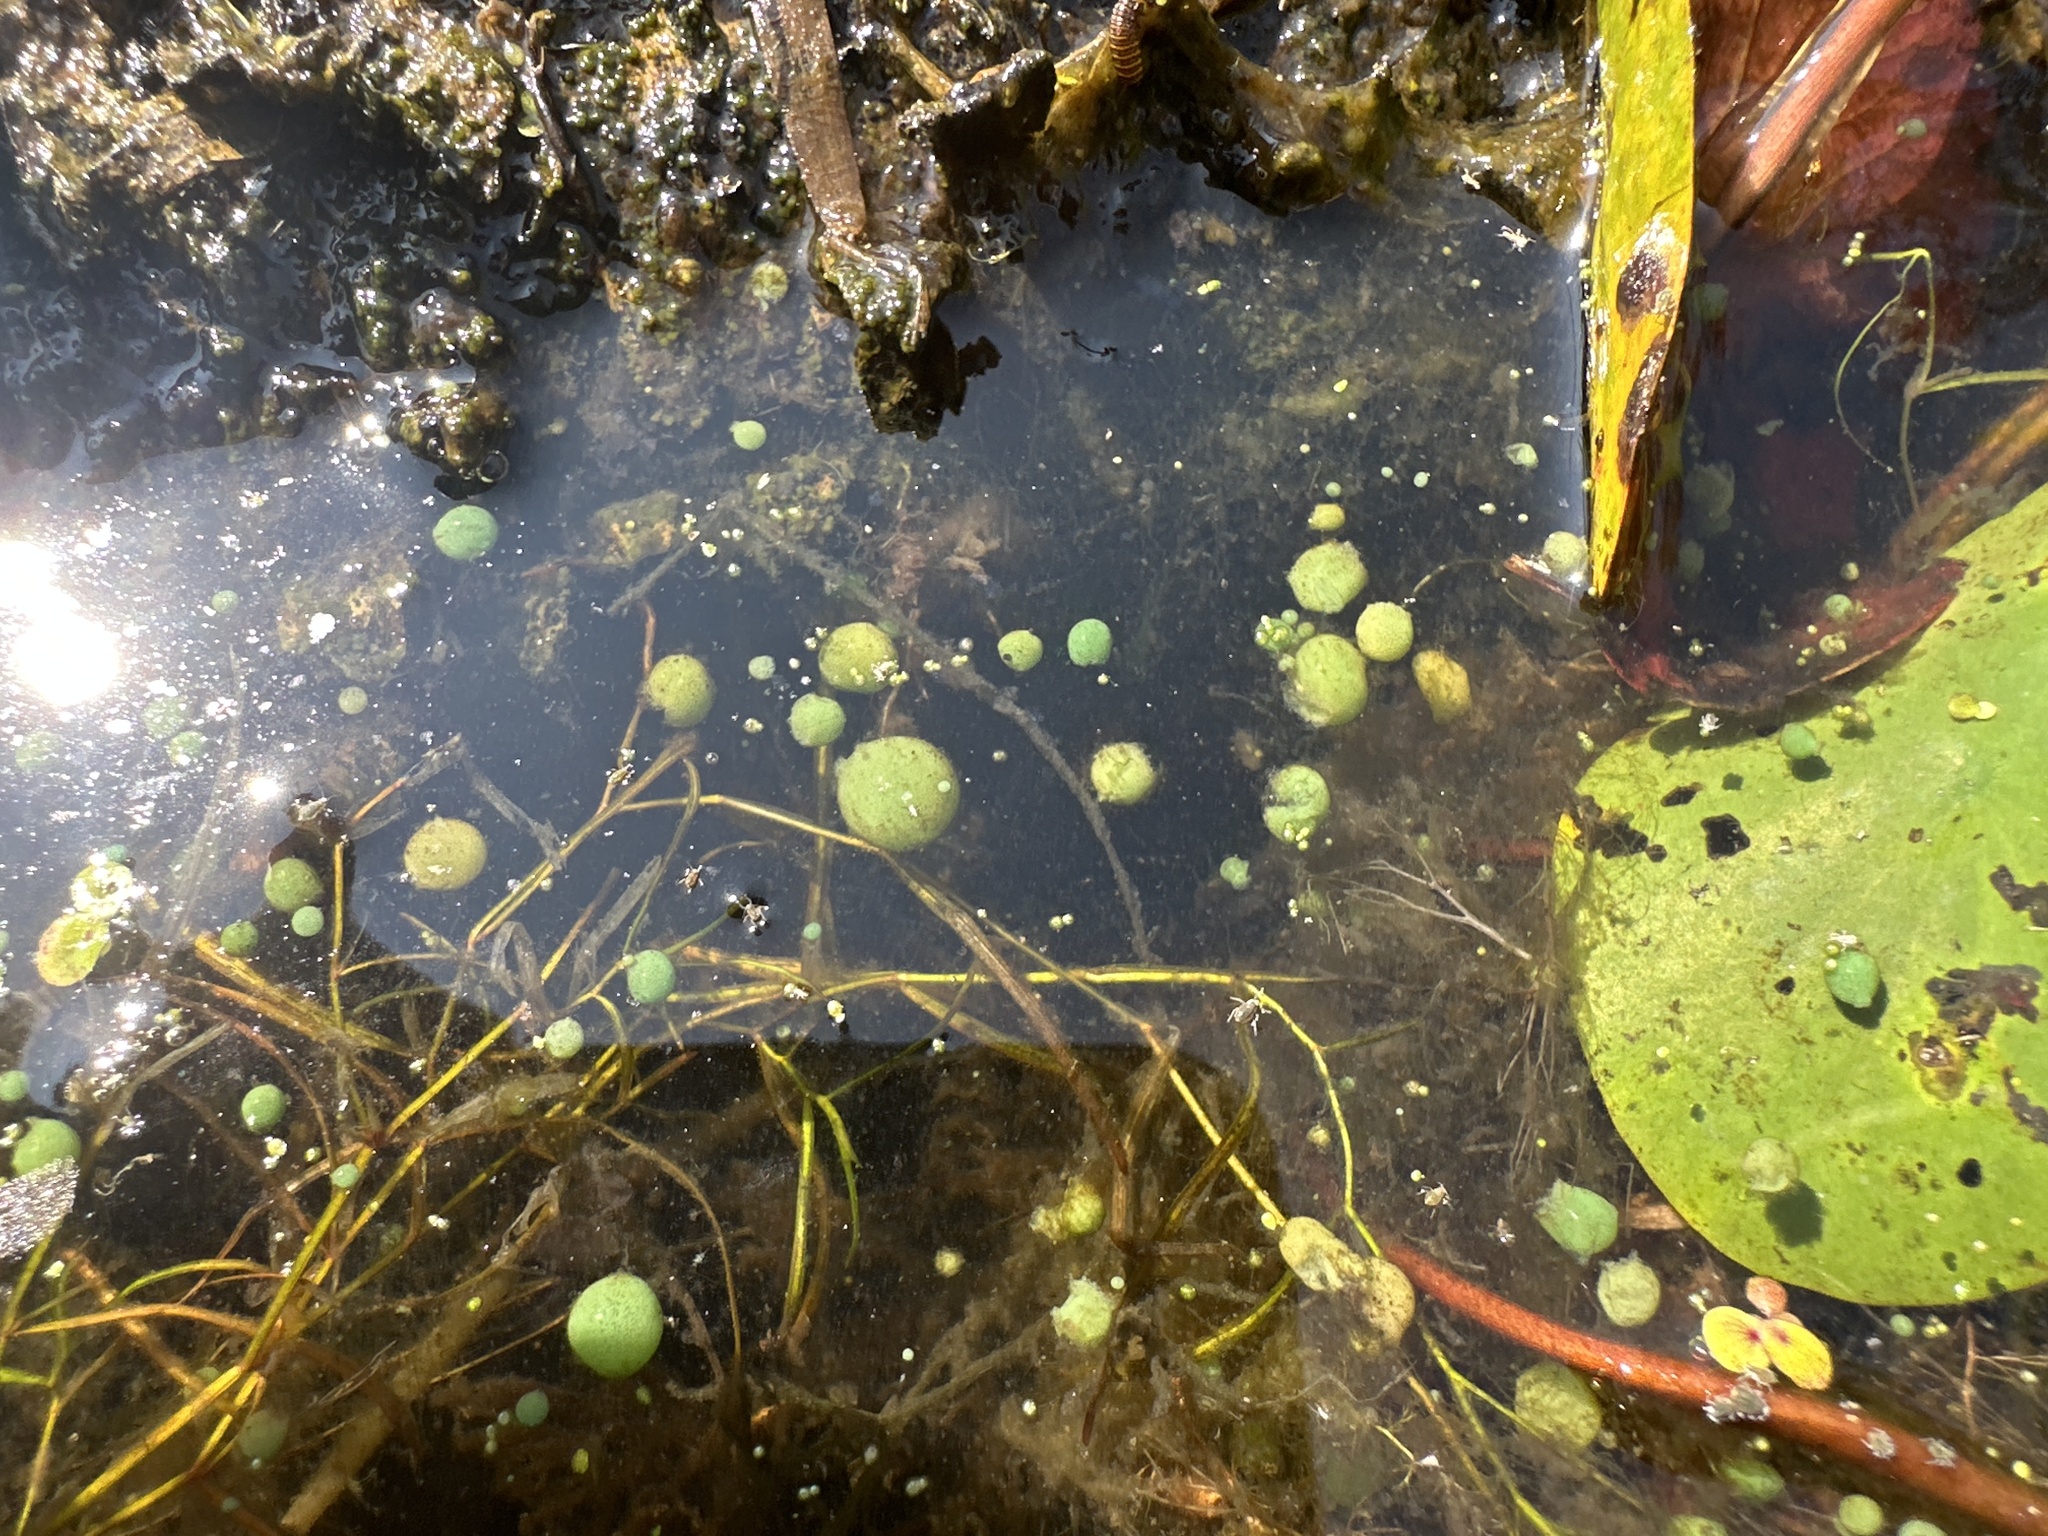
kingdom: Bacteria
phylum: Cyanobacteria
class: Cyanobacteriia
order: Cyanobacteriales
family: Nostocaceae
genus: Nostoc
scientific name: Nostoc kihlmanii
